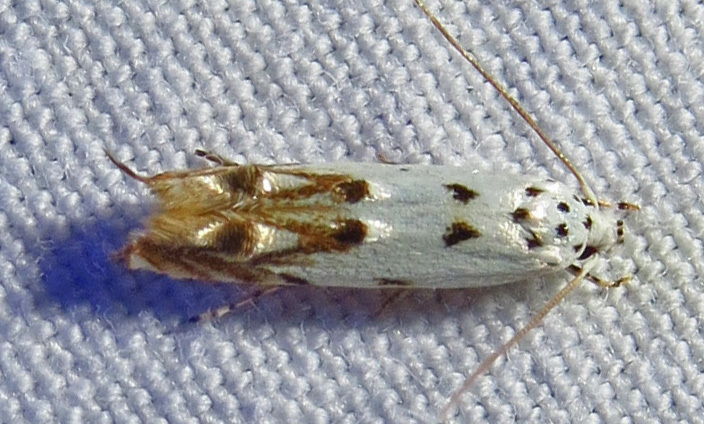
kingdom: Animalia
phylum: Arthropoda
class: Insecta
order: Lepidoptera
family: Momphidae
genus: Mompha
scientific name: Mompha eloisella
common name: Red-streaked mompha moth
